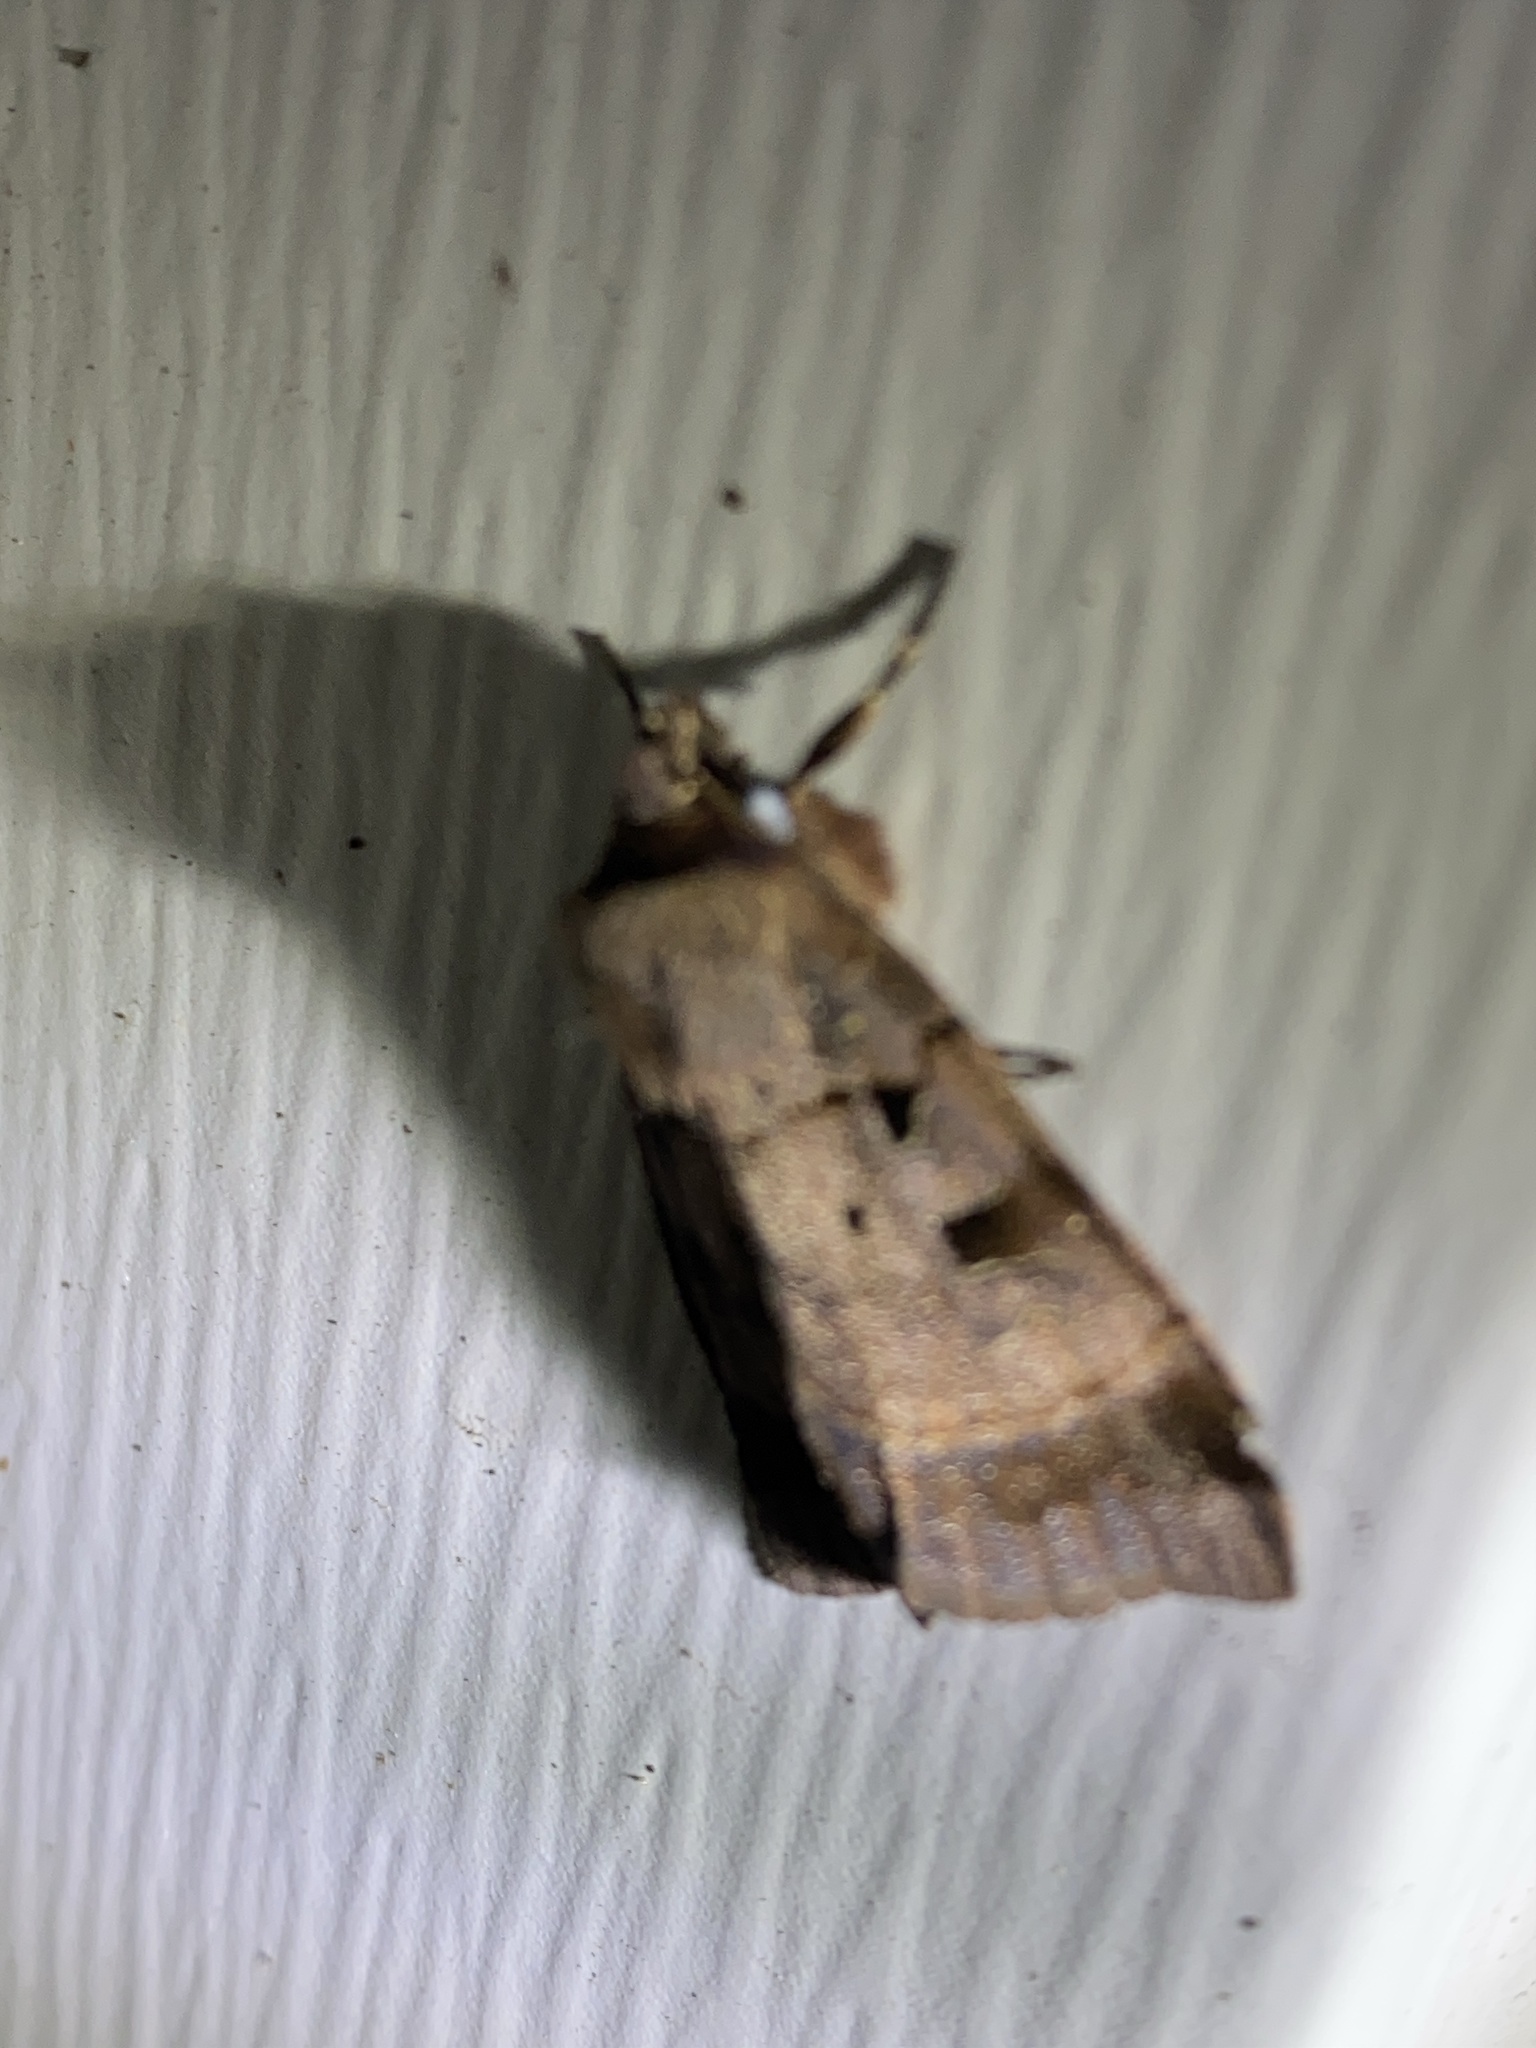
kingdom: Animalia
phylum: Arthropoda
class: Insecta
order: Lepidoptera
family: Noctuidae
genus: Agnorisma
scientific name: Agnorisma badinodis
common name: Pale-banded dart
